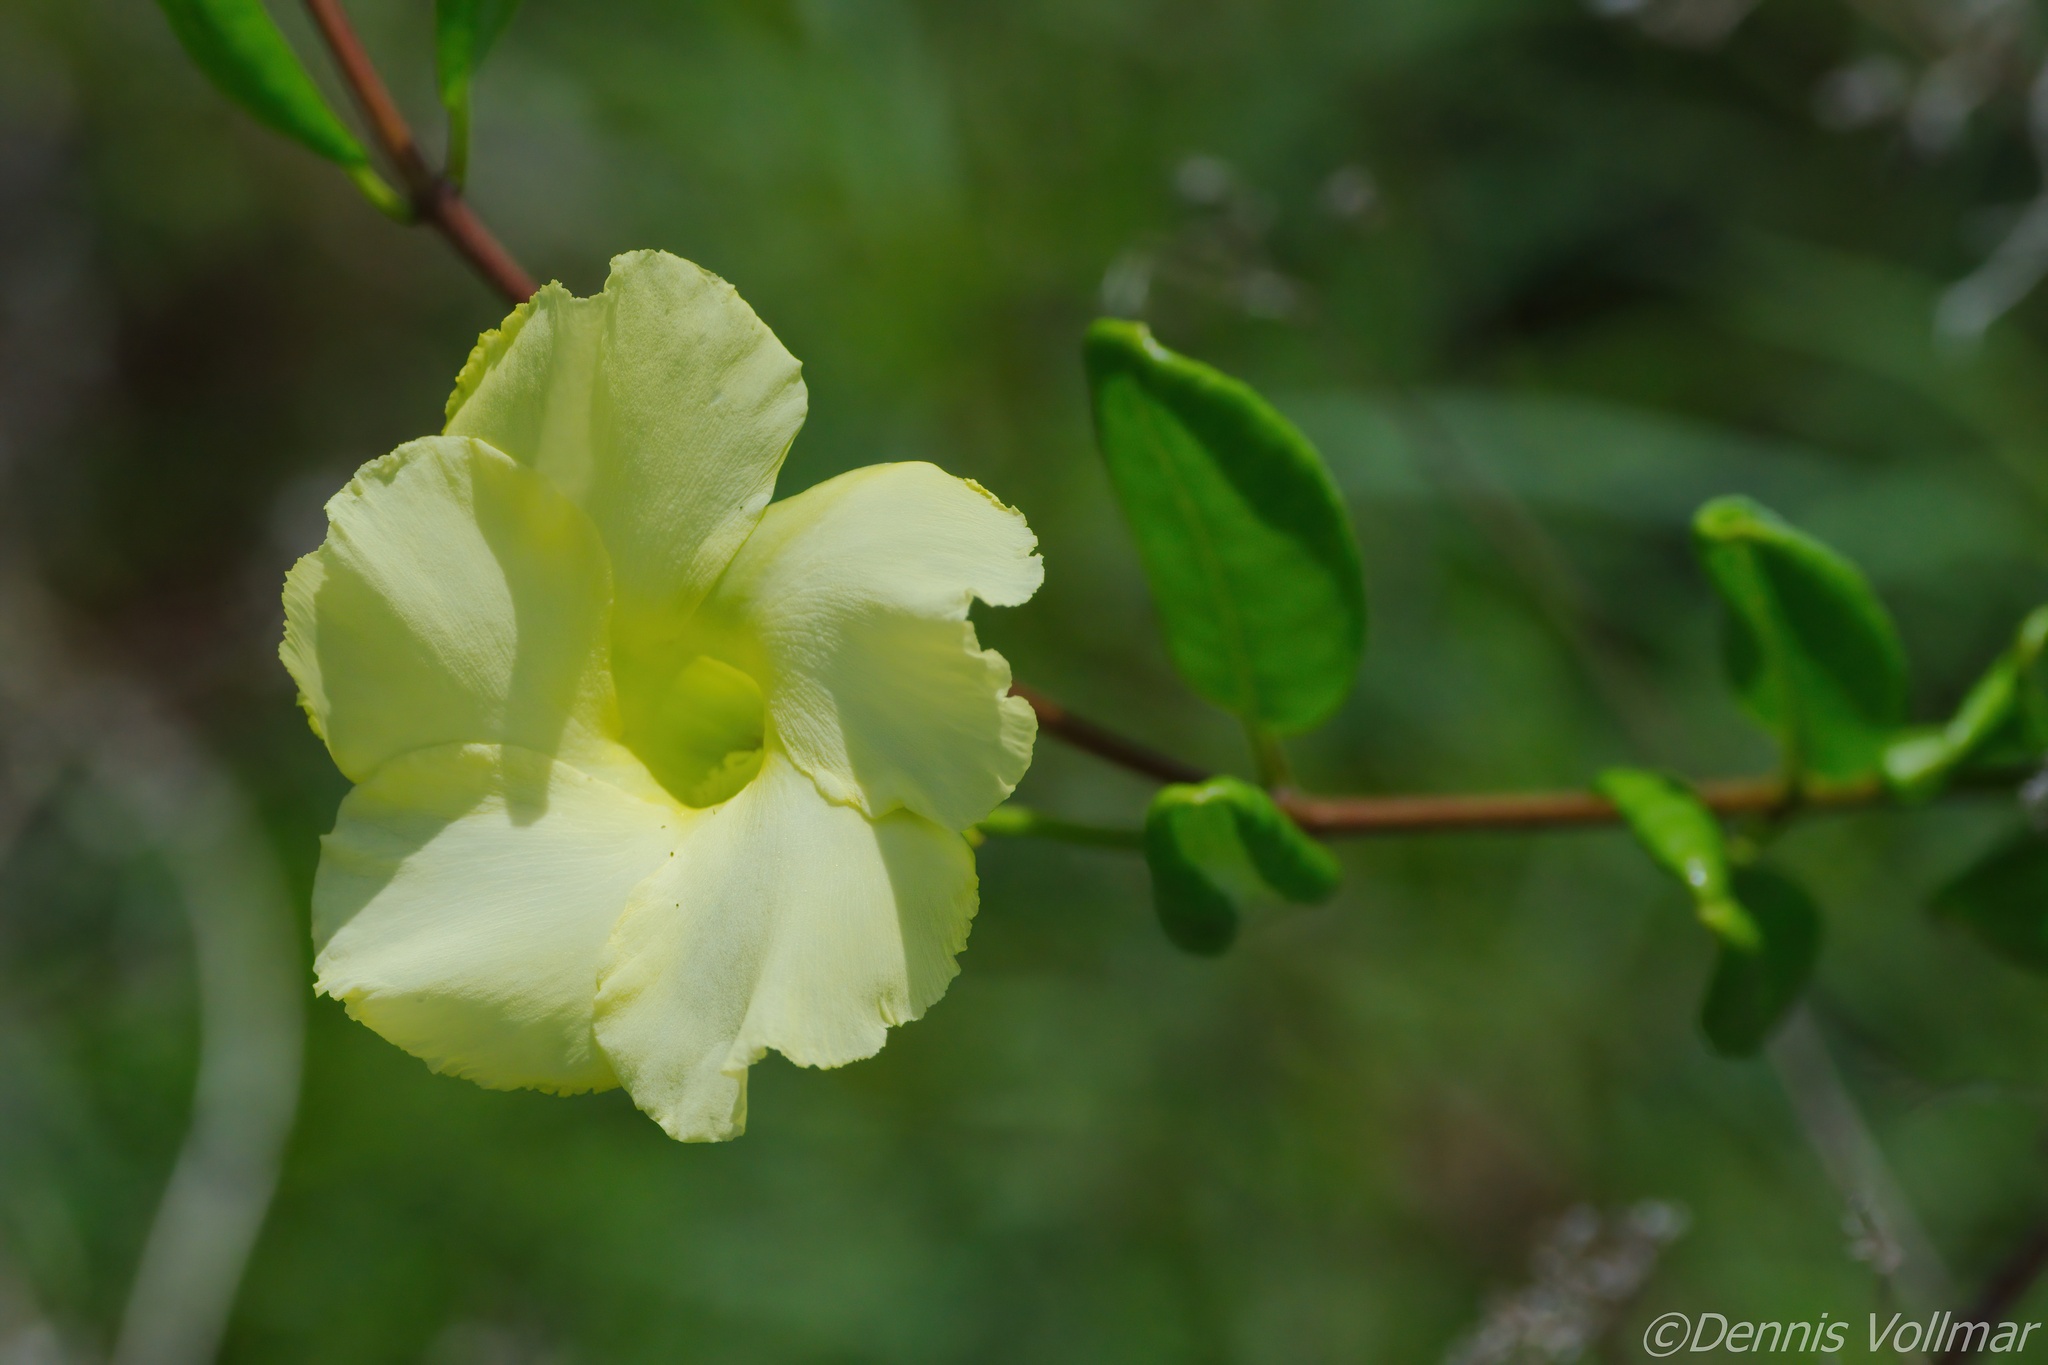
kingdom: Plantae
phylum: Tracheophyta
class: Magnoliopsida
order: Gentianales
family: Apocynaceae
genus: Pentalinon
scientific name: Pentalinon luteum
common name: Licebush
